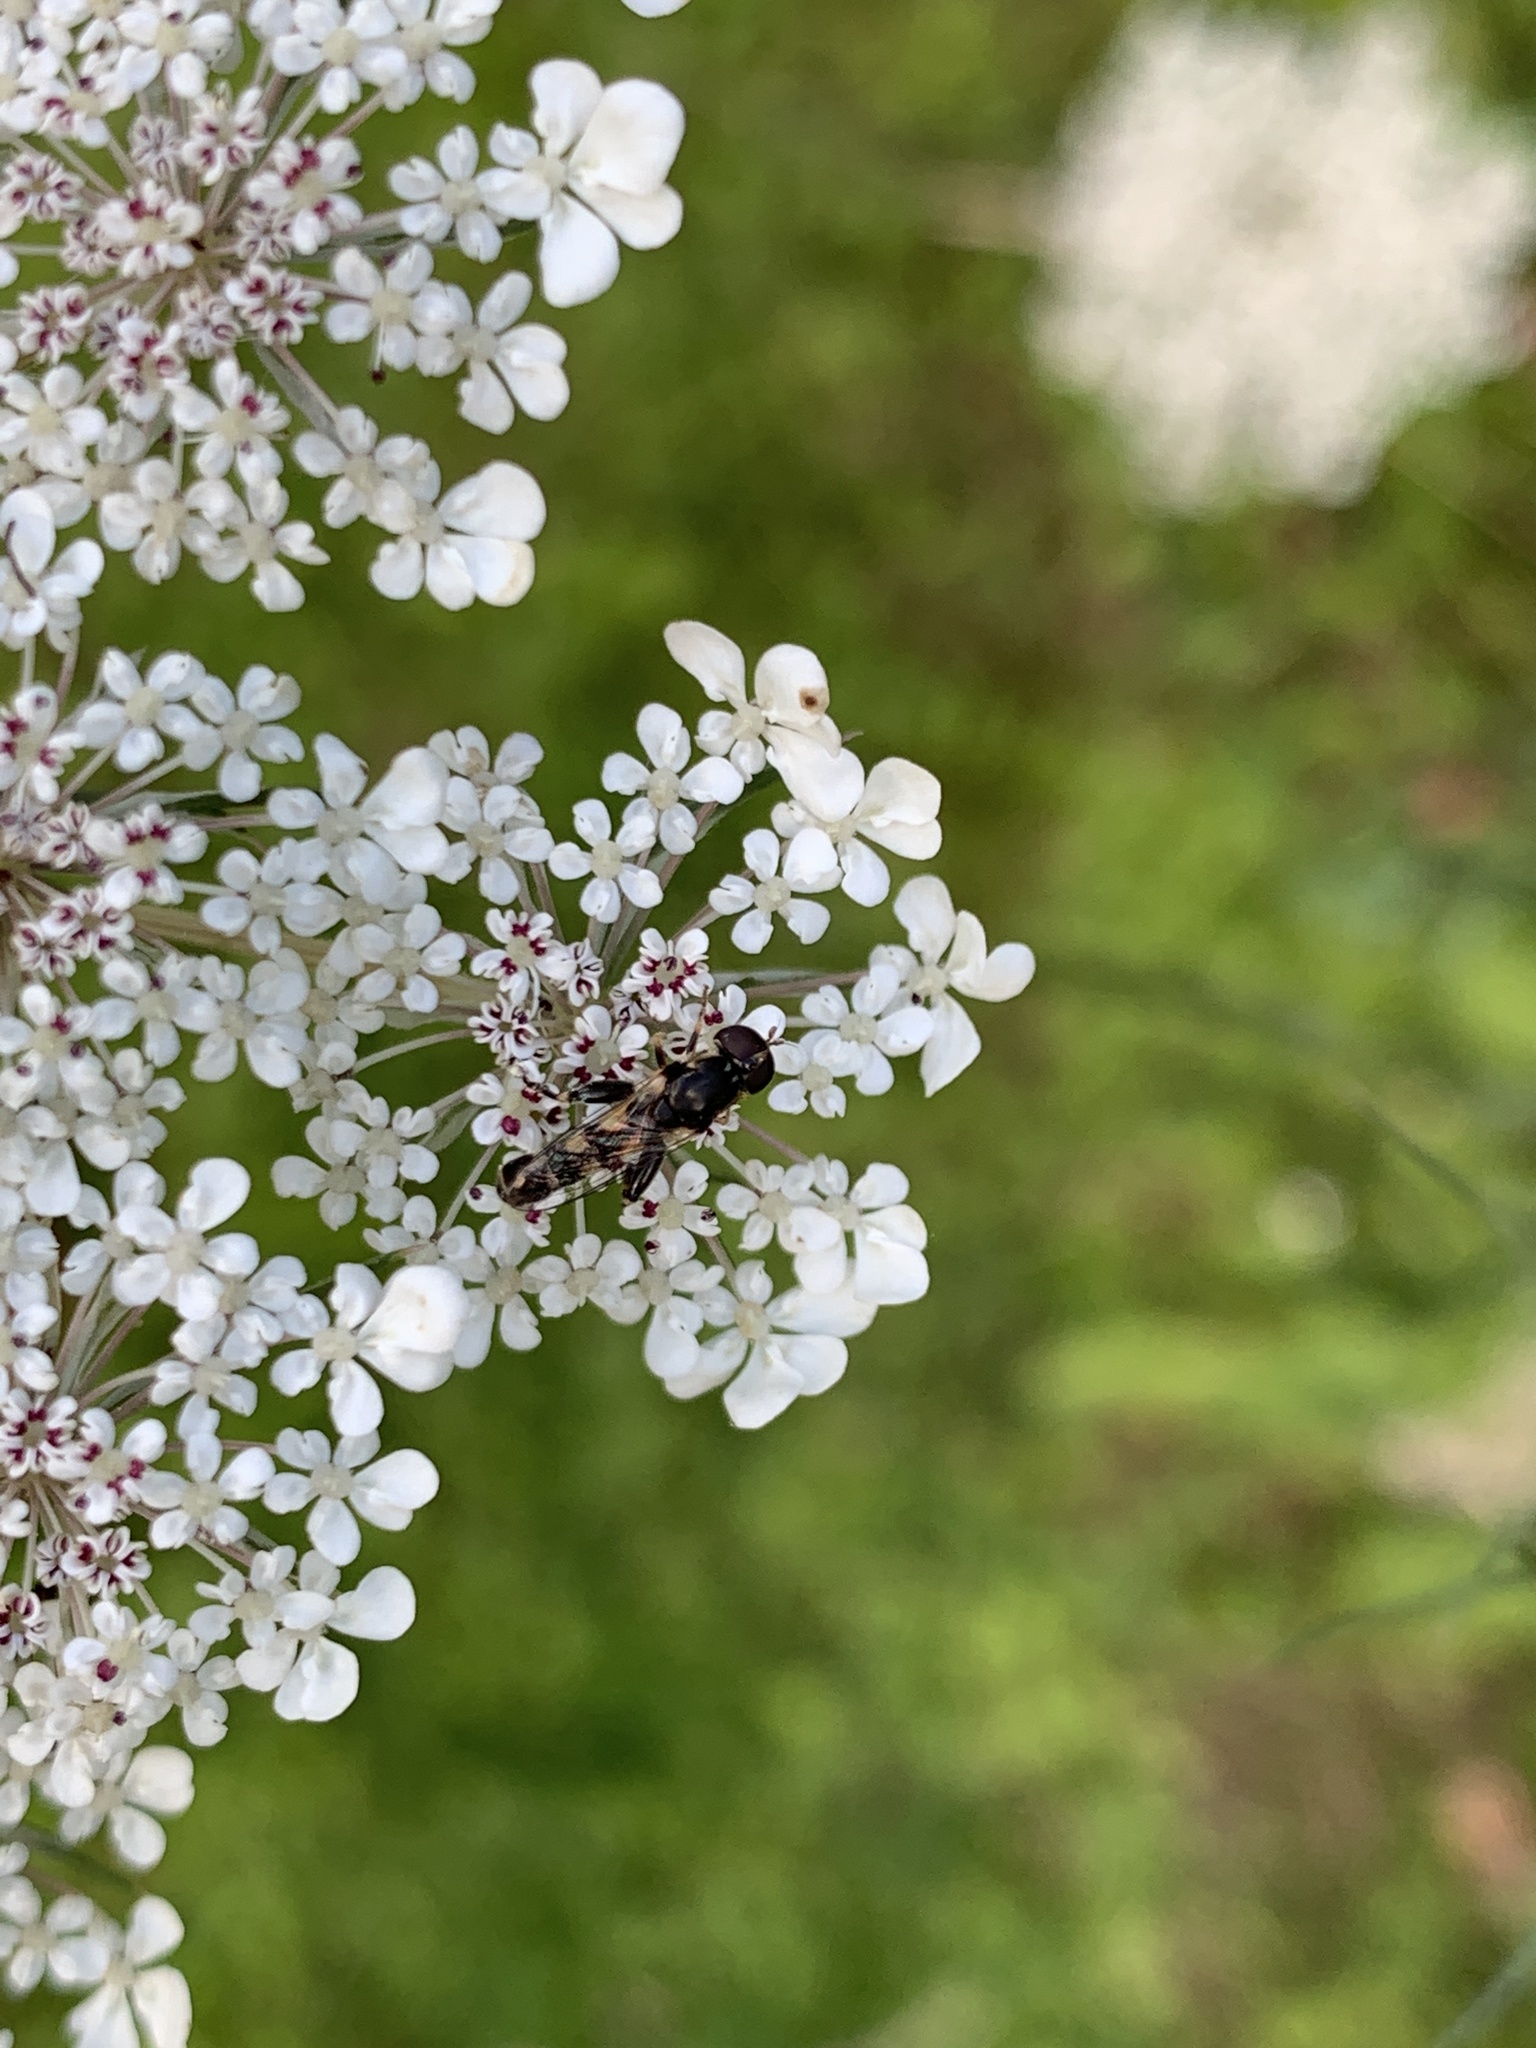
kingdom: Animalia
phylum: Arthropoda
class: Insecta
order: Diptera
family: Syrphidae
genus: Syritta
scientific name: Syritta pipiens
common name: Hover fly
